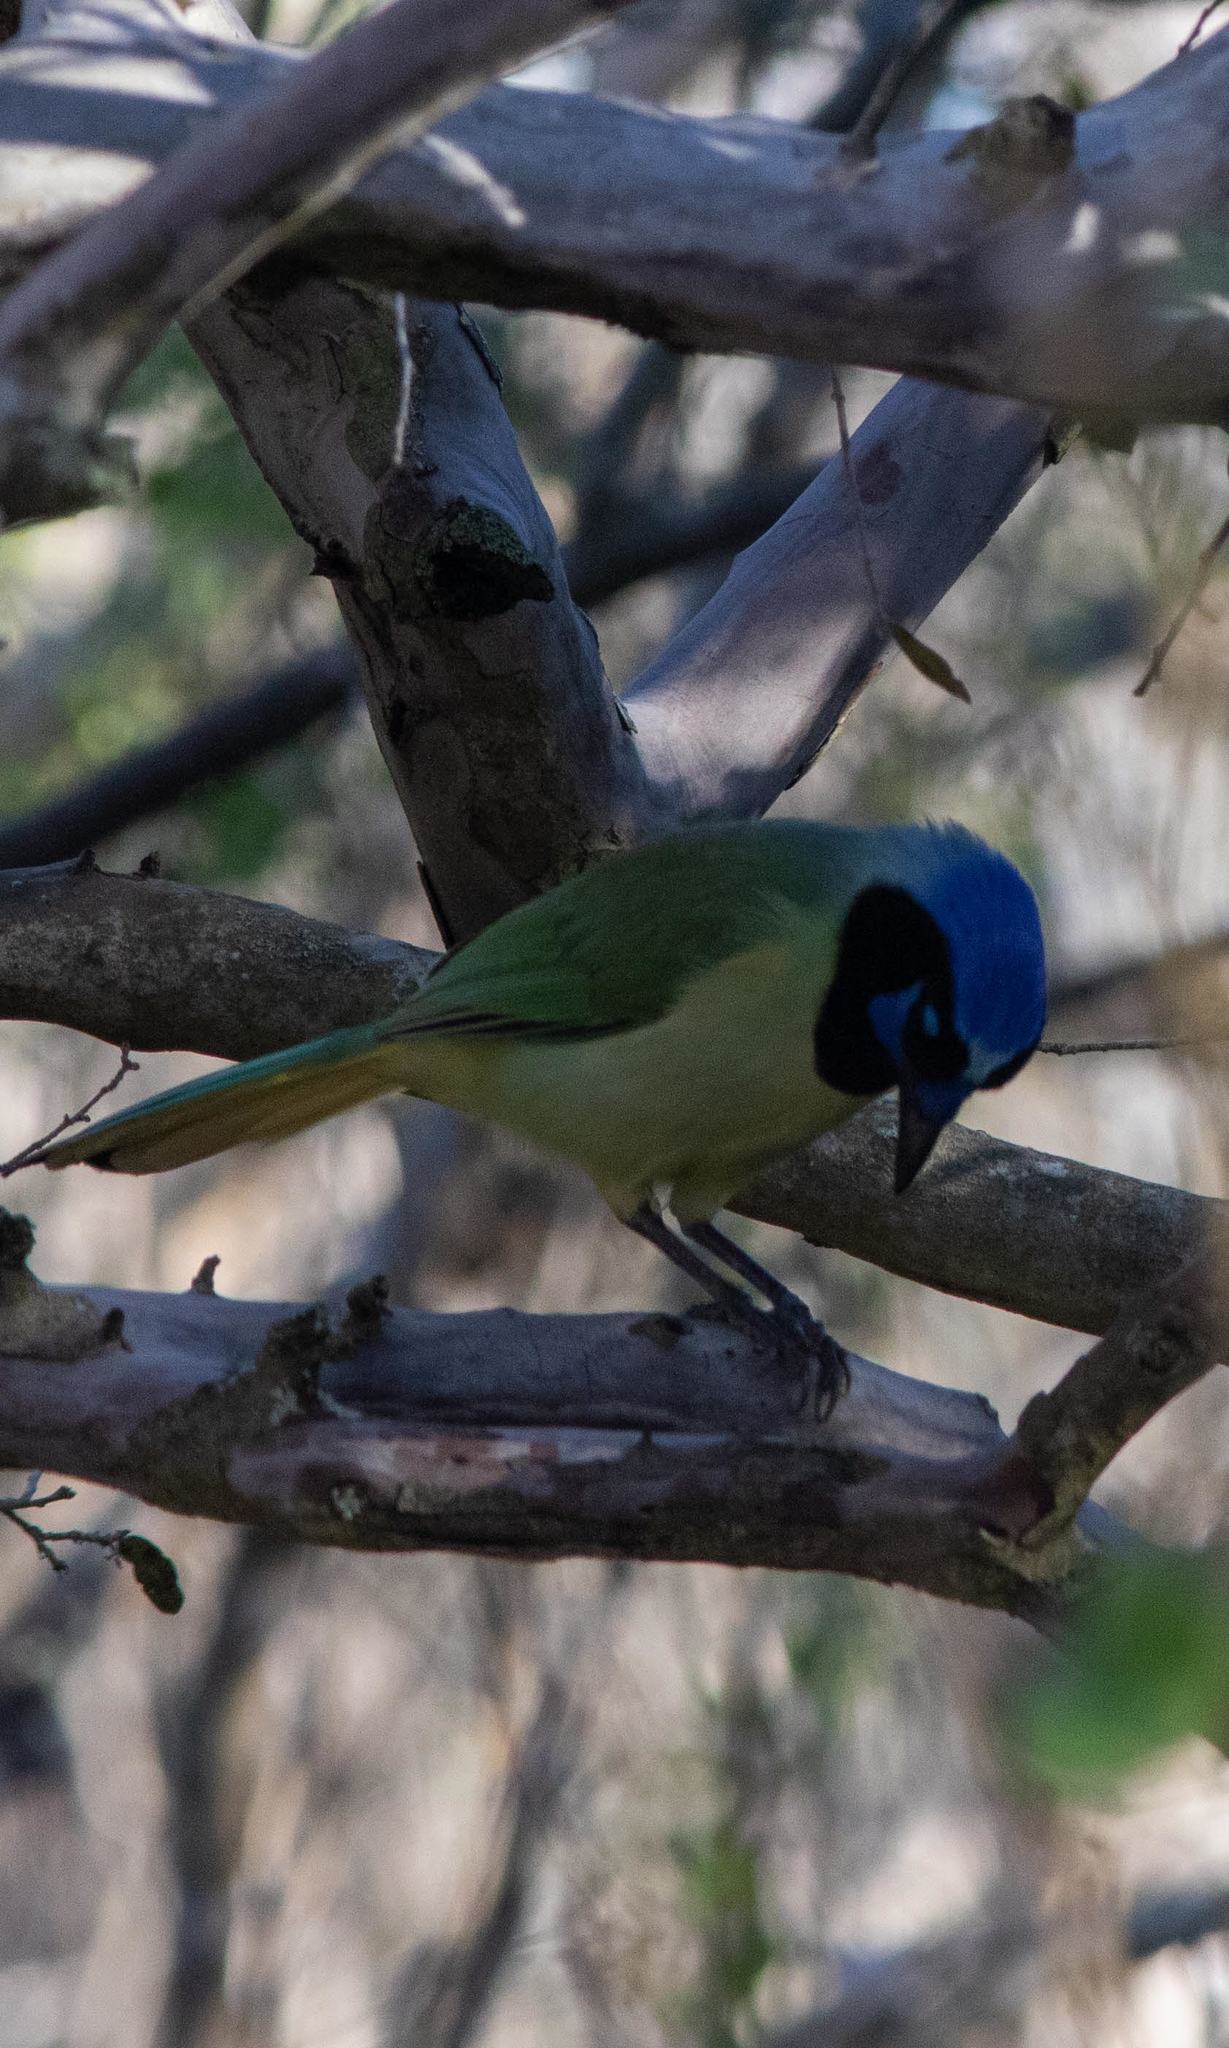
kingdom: Animalia
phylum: Chordata
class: Aves
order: Passeriformes
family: Corvidae
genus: Cyanocorax
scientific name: Cyanocorax yncas
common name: Green jay
